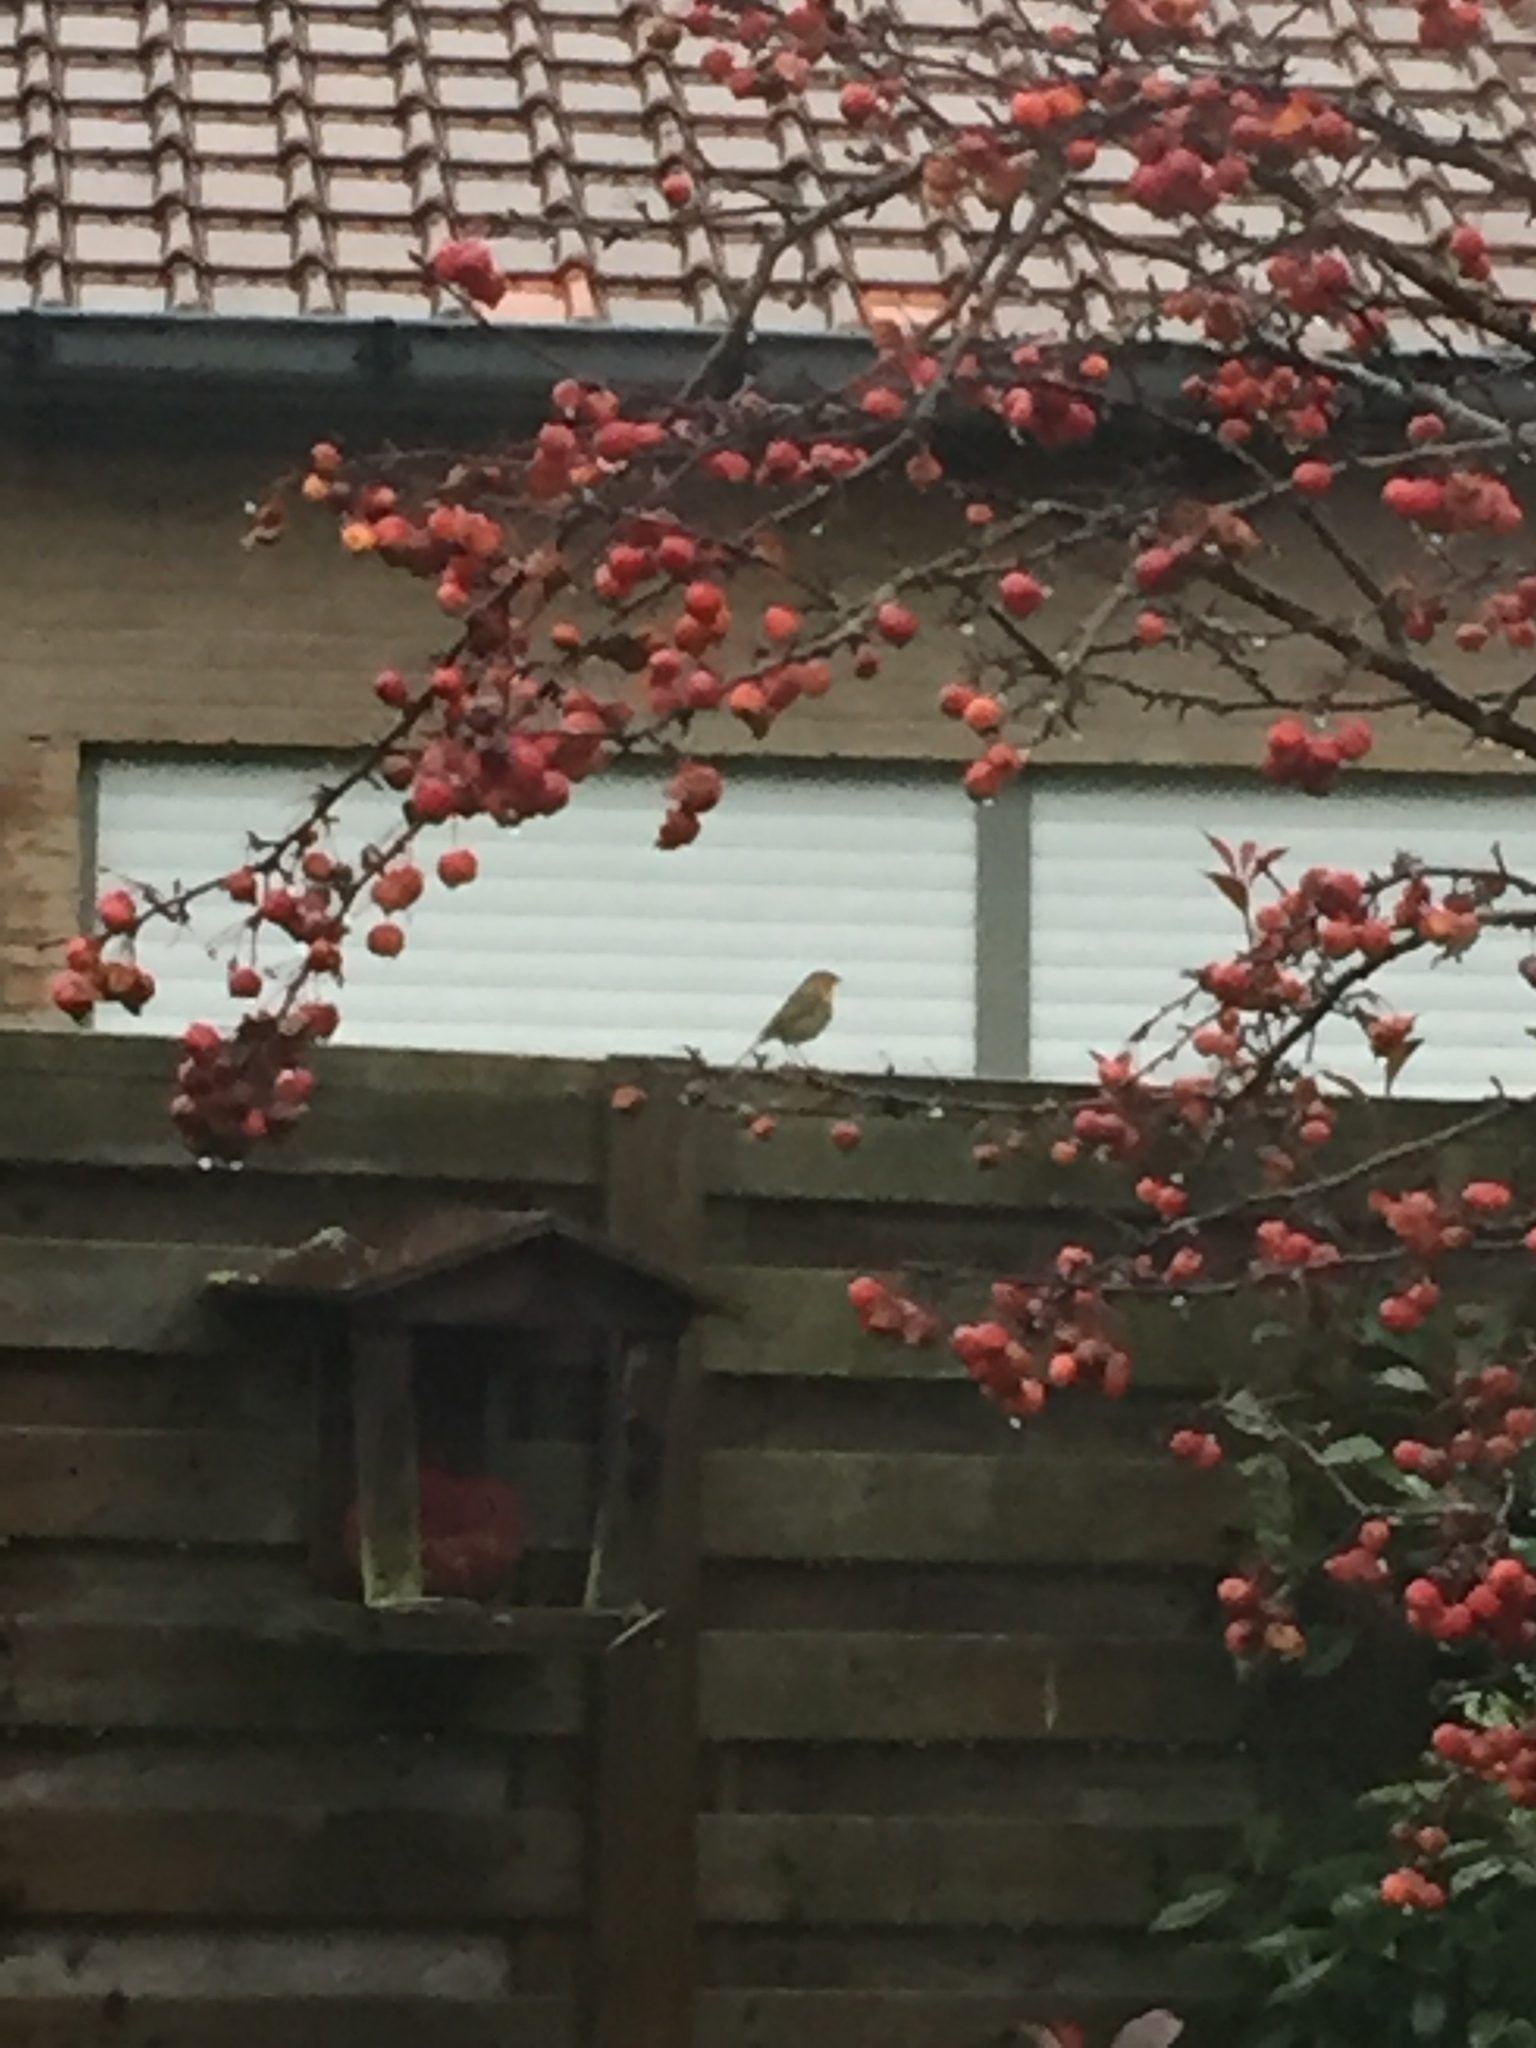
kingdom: Animalia
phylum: Chordata
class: Aves
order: Passeriformes
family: Muscicapidae
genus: Erithacus
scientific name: Erithacus rubecula
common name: European robin
